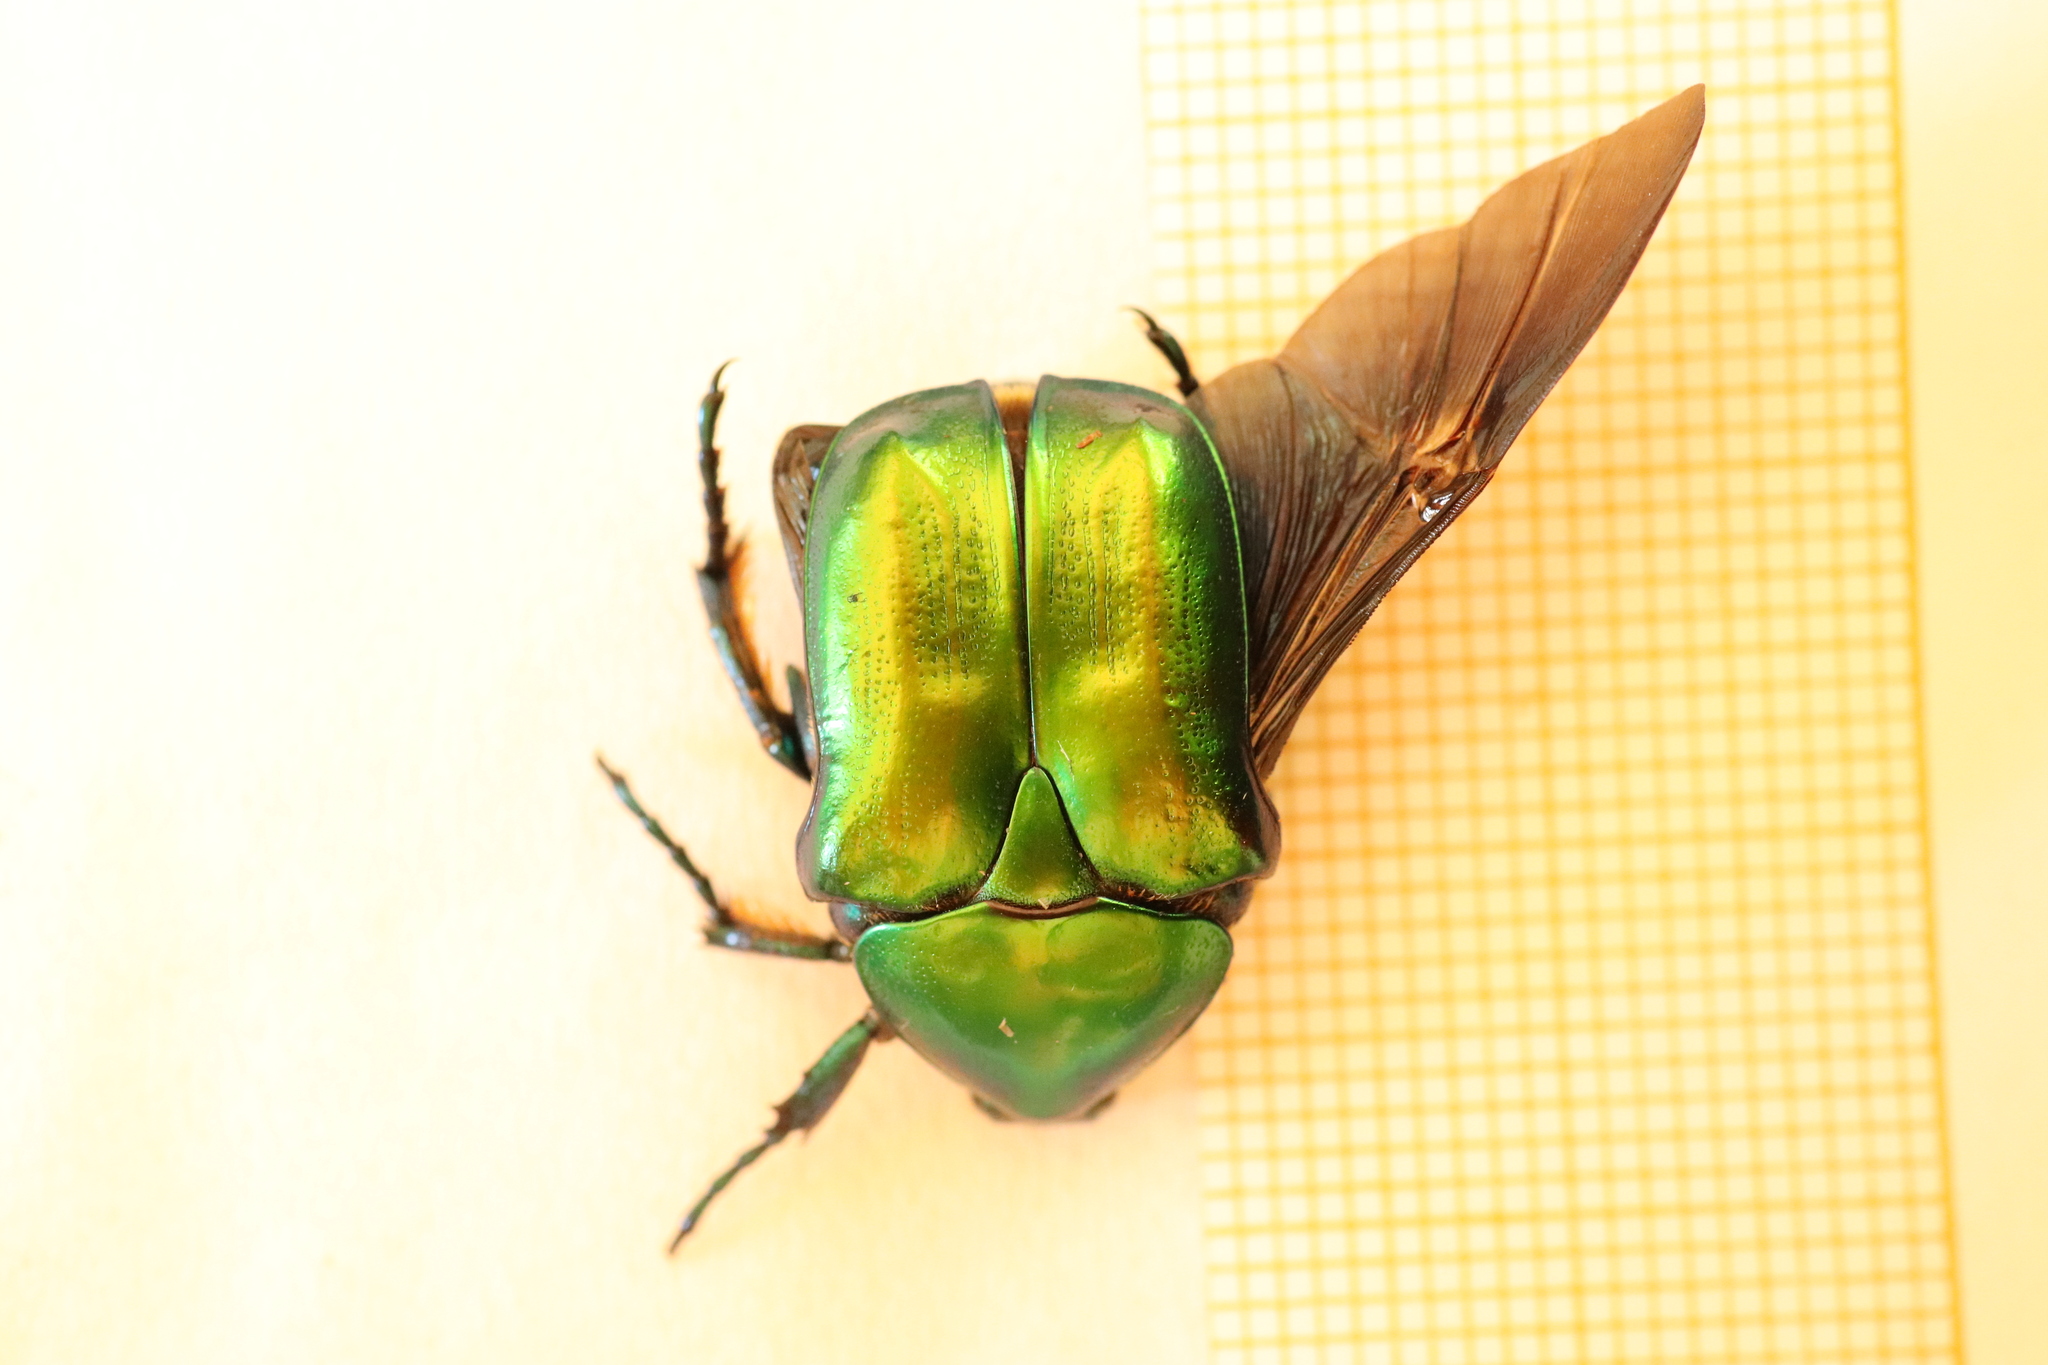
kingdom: Animalia
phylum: Arthropoda
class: Insecta
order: Coleoptera
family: Scarabaeidae
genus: Protaetia
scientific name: Protaetia affinis
